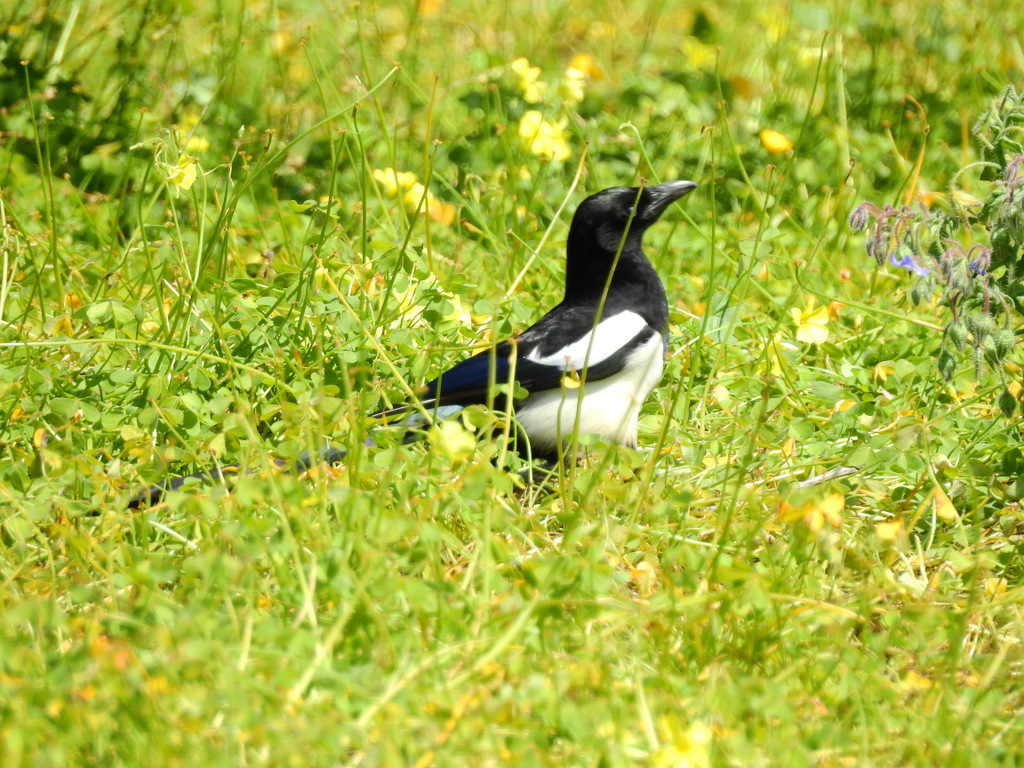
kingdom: Animalia
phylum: Chordata
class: Aves
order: Passeriformes
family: Corvidae
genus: Pica
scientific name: Pica pica
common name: Eurasian magpie
